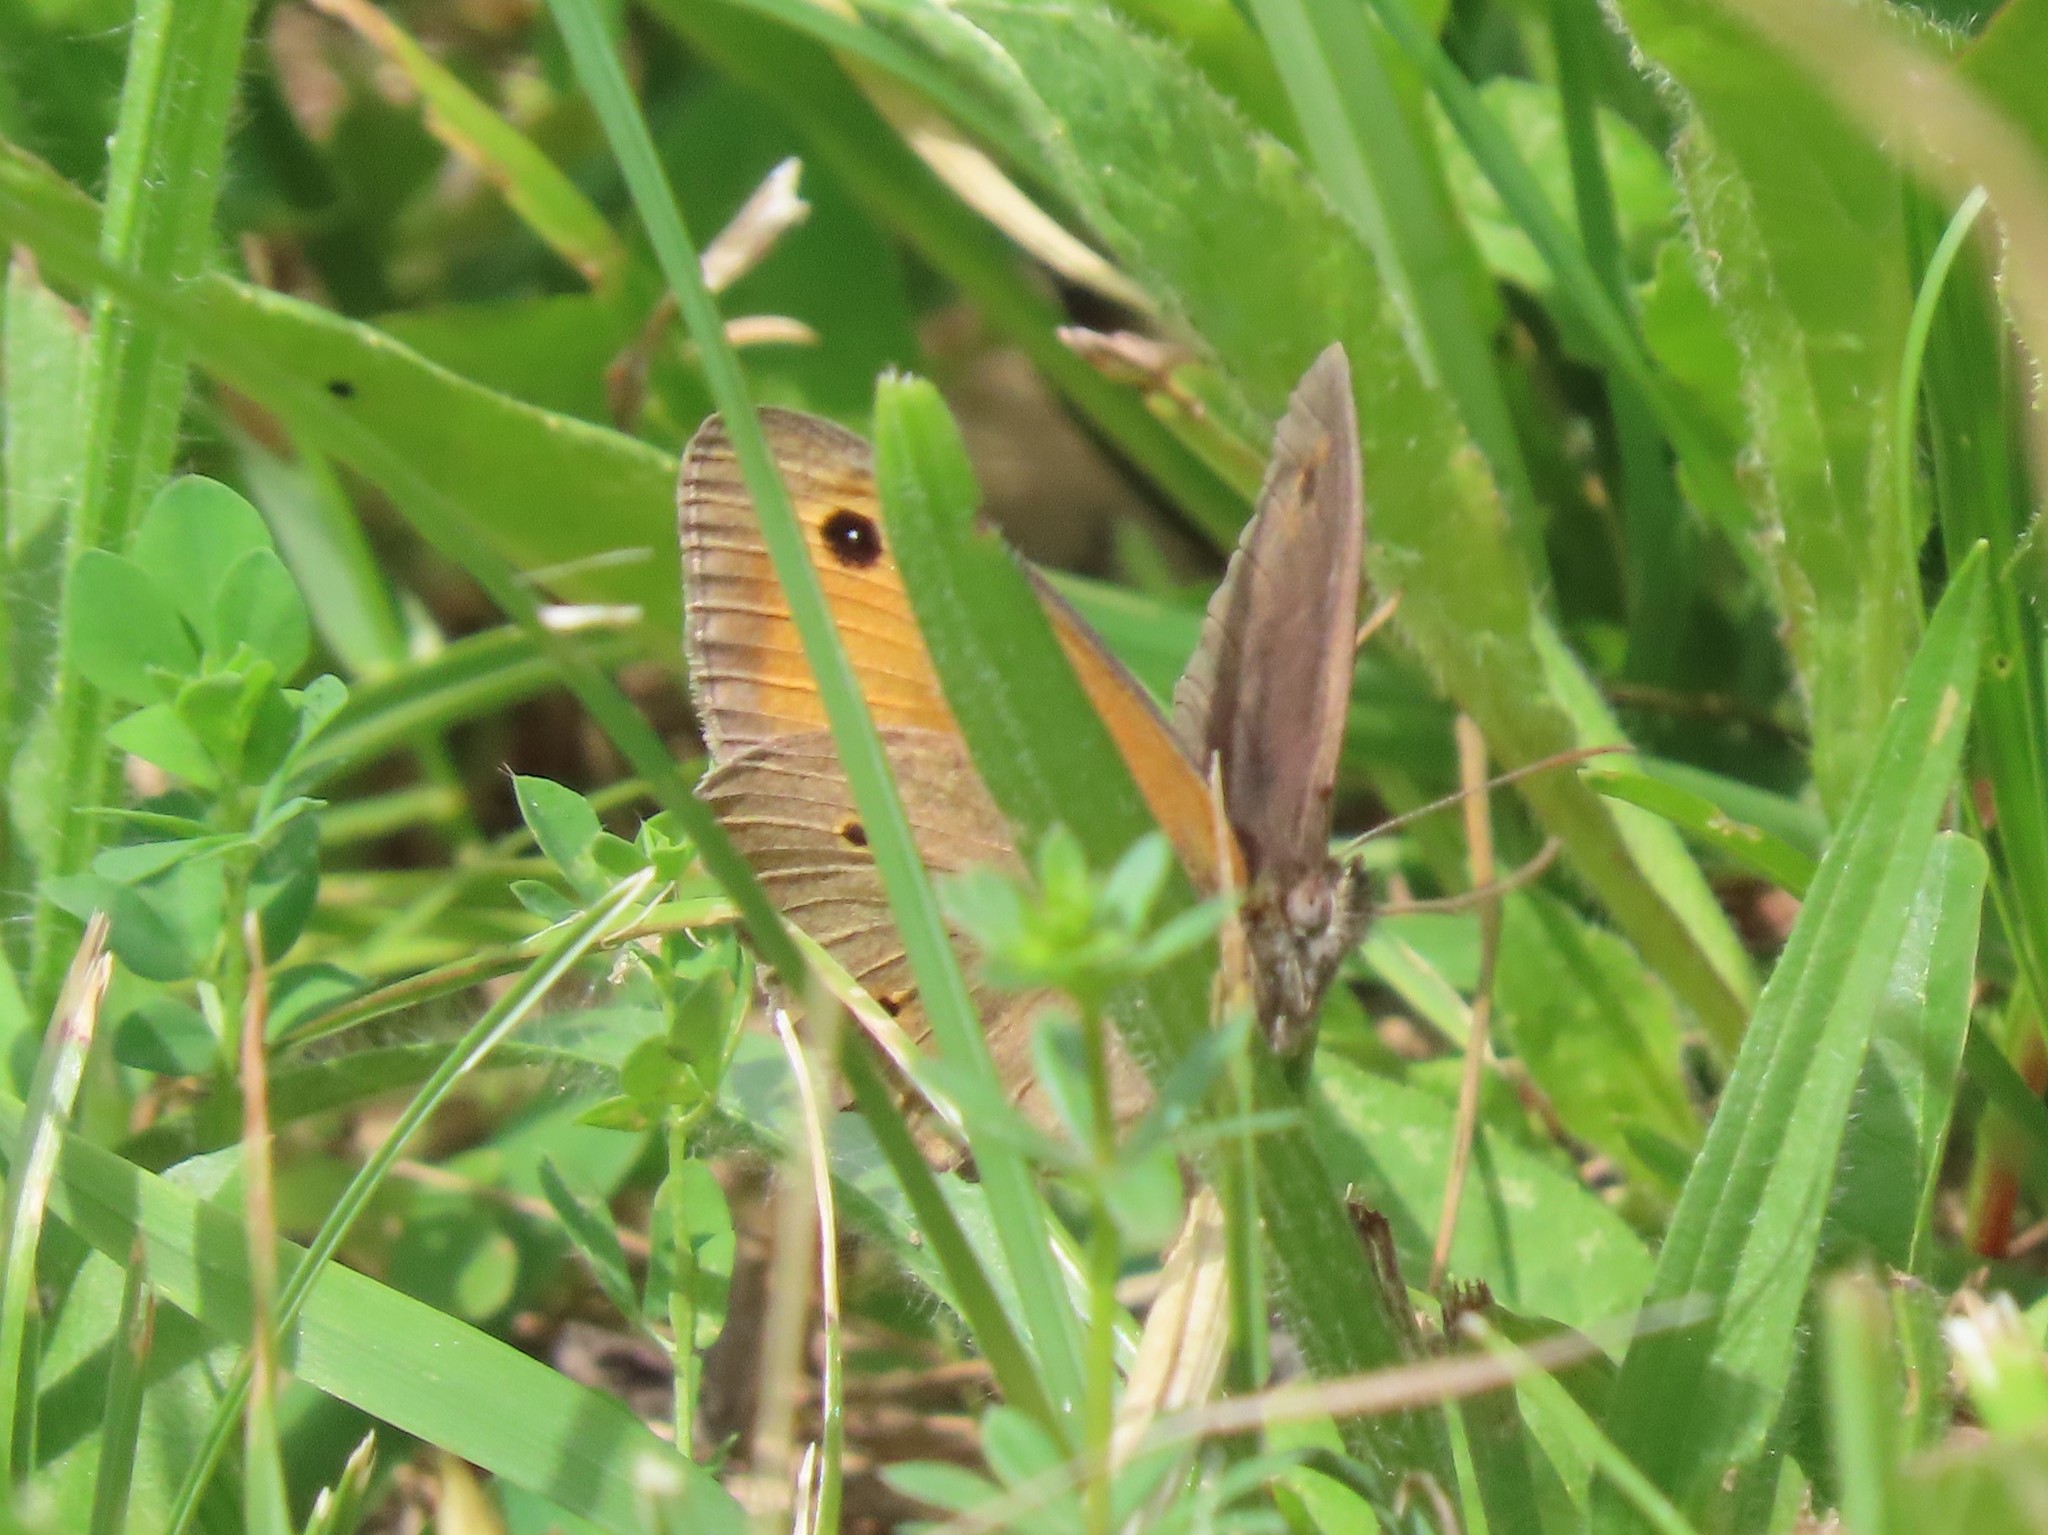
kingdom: Animalia
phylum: Arthropoda
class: Insecta
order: Lepidoptera
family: Nymphalidae
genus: Maniola
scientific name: Maniola jurtina
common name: Meadow brown
